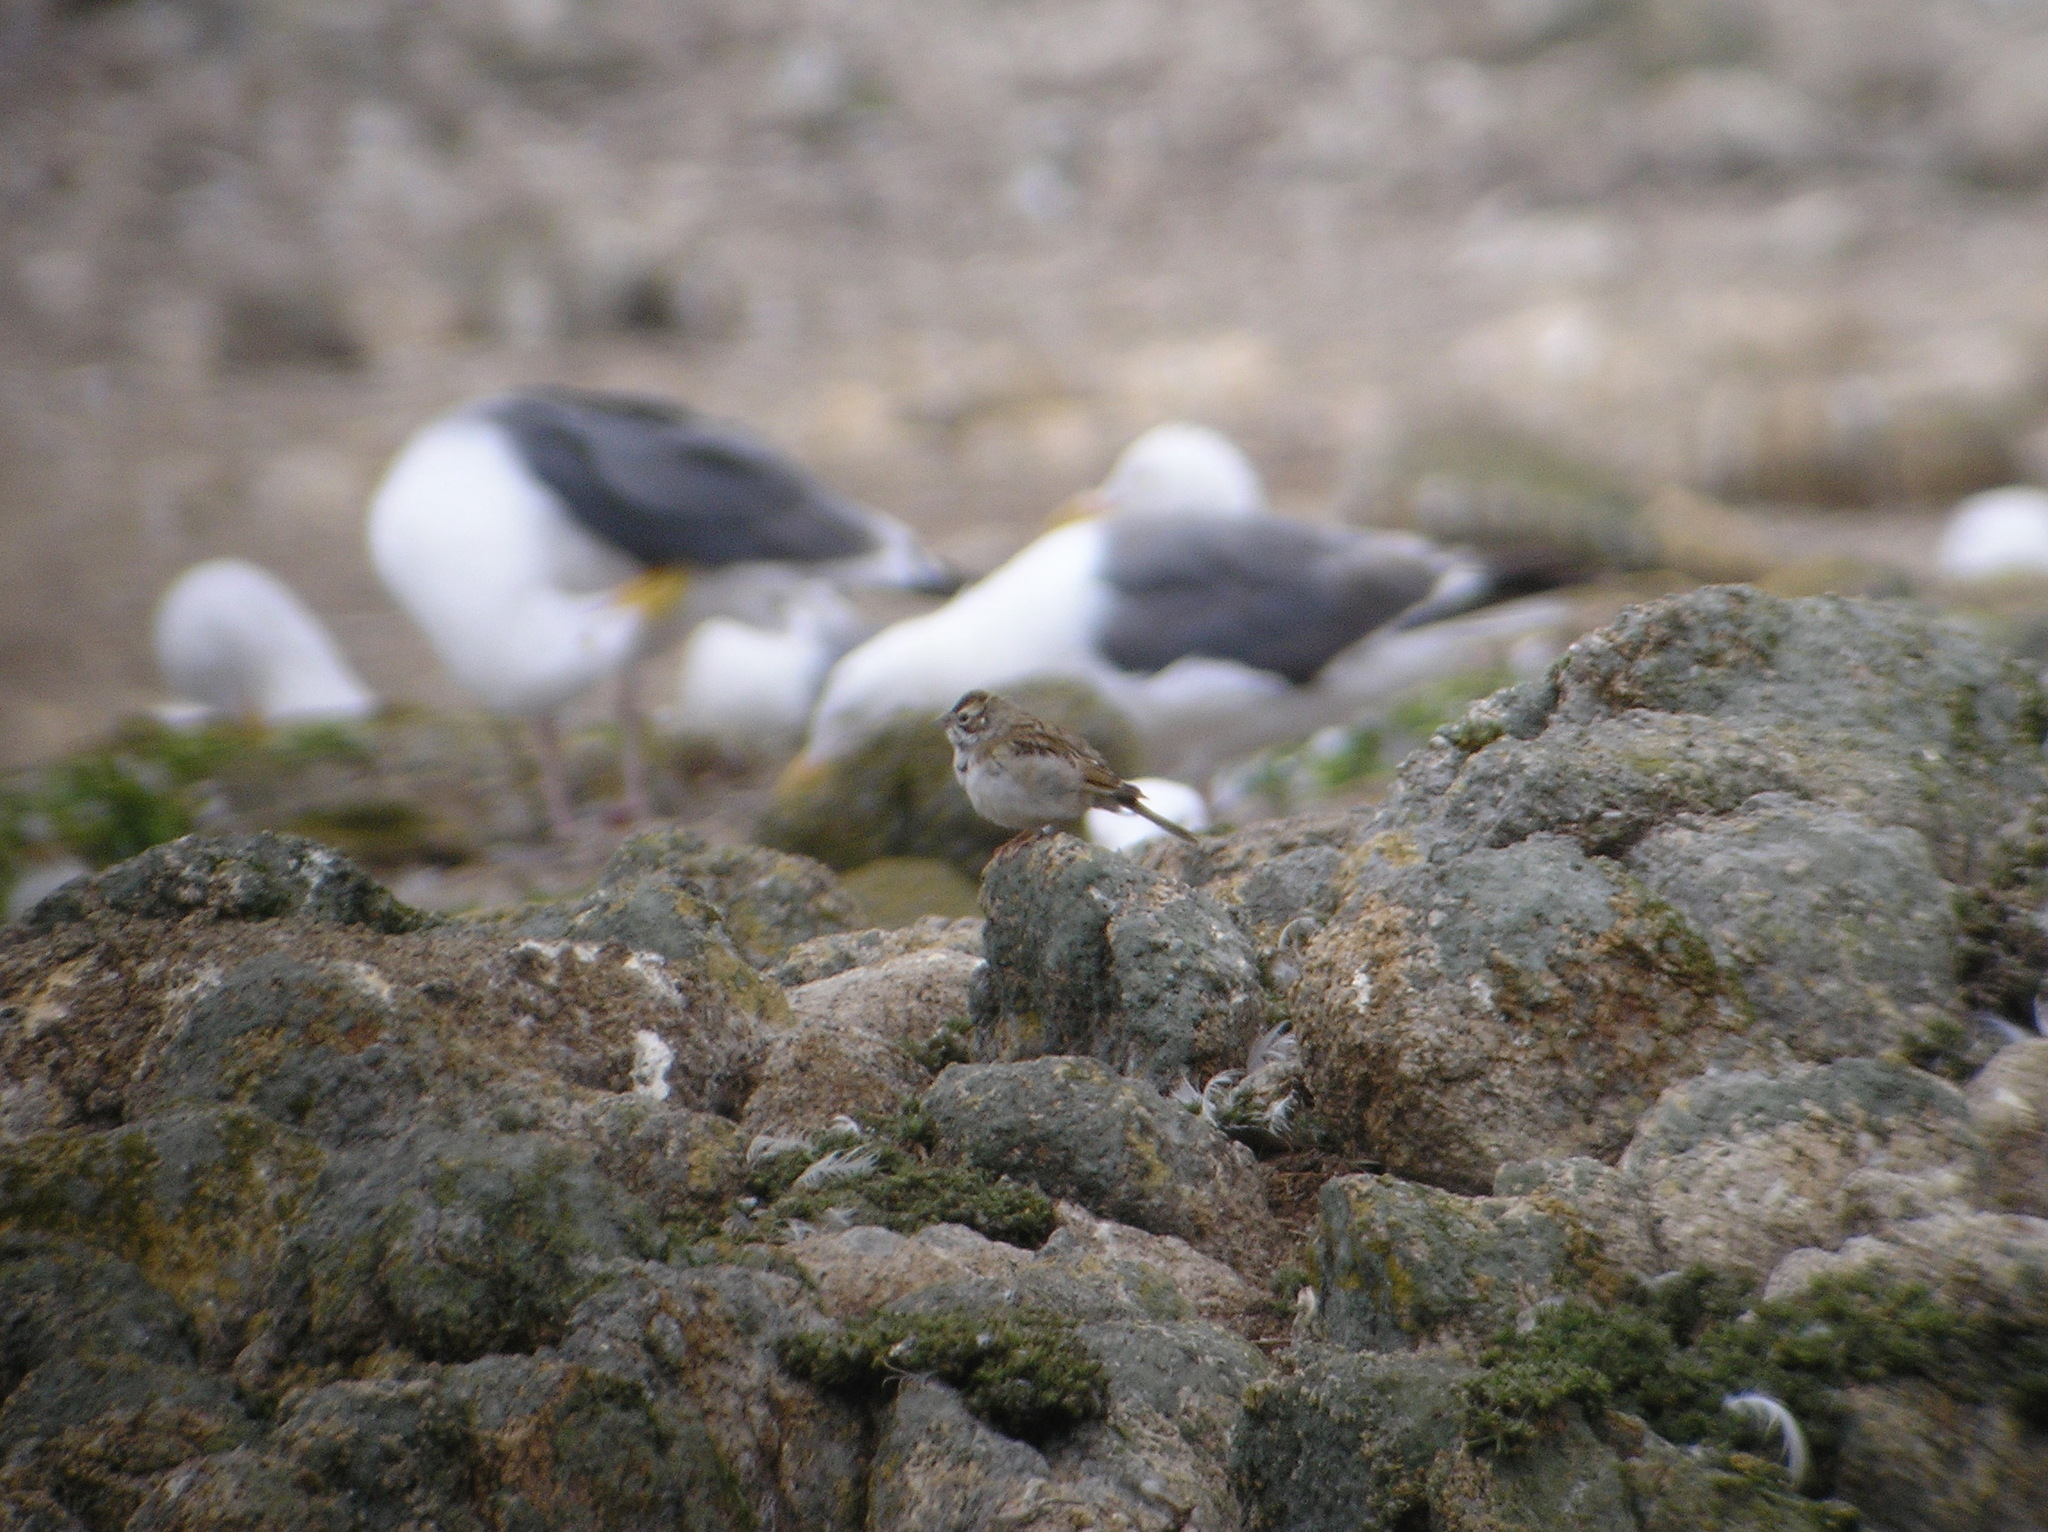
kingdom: Animalia
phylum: Chordata
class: Aves
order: Passeriformes
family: Passerellidae
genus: Chondestes
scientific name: Chondestes grammacus
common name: Lark sparrow
